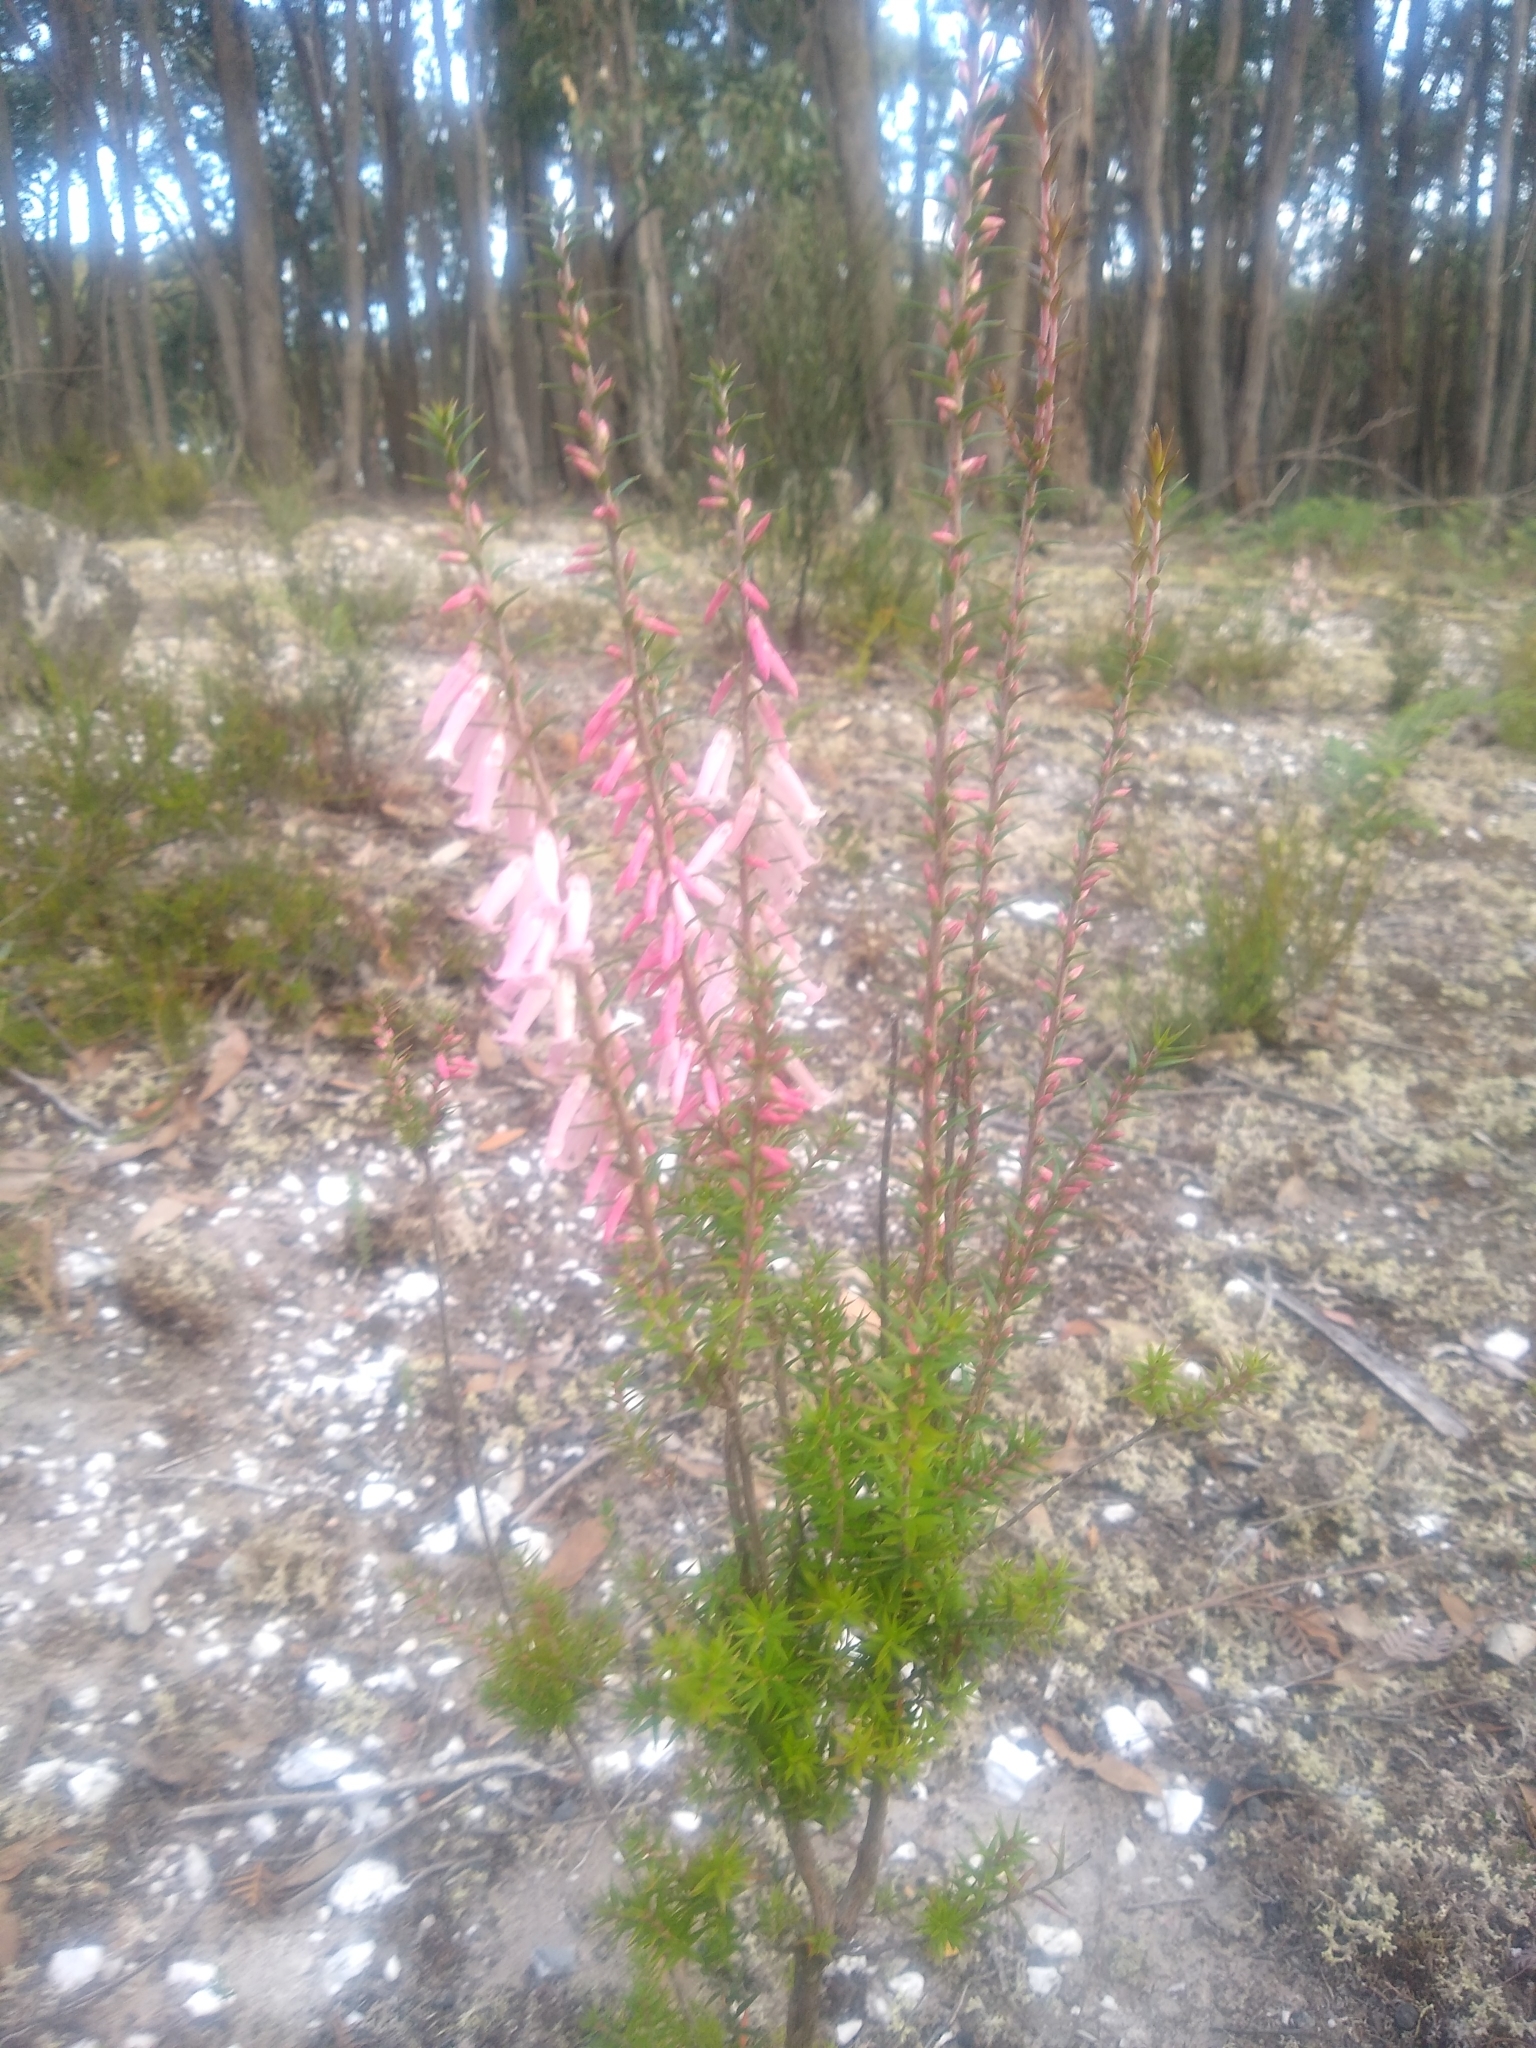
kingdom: Plantae
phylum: Tracheophyta
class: Magnoliopsida
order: Ericales
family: Ericaceae
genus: Epacris
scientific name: Epacris impressa
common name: Common-heath
